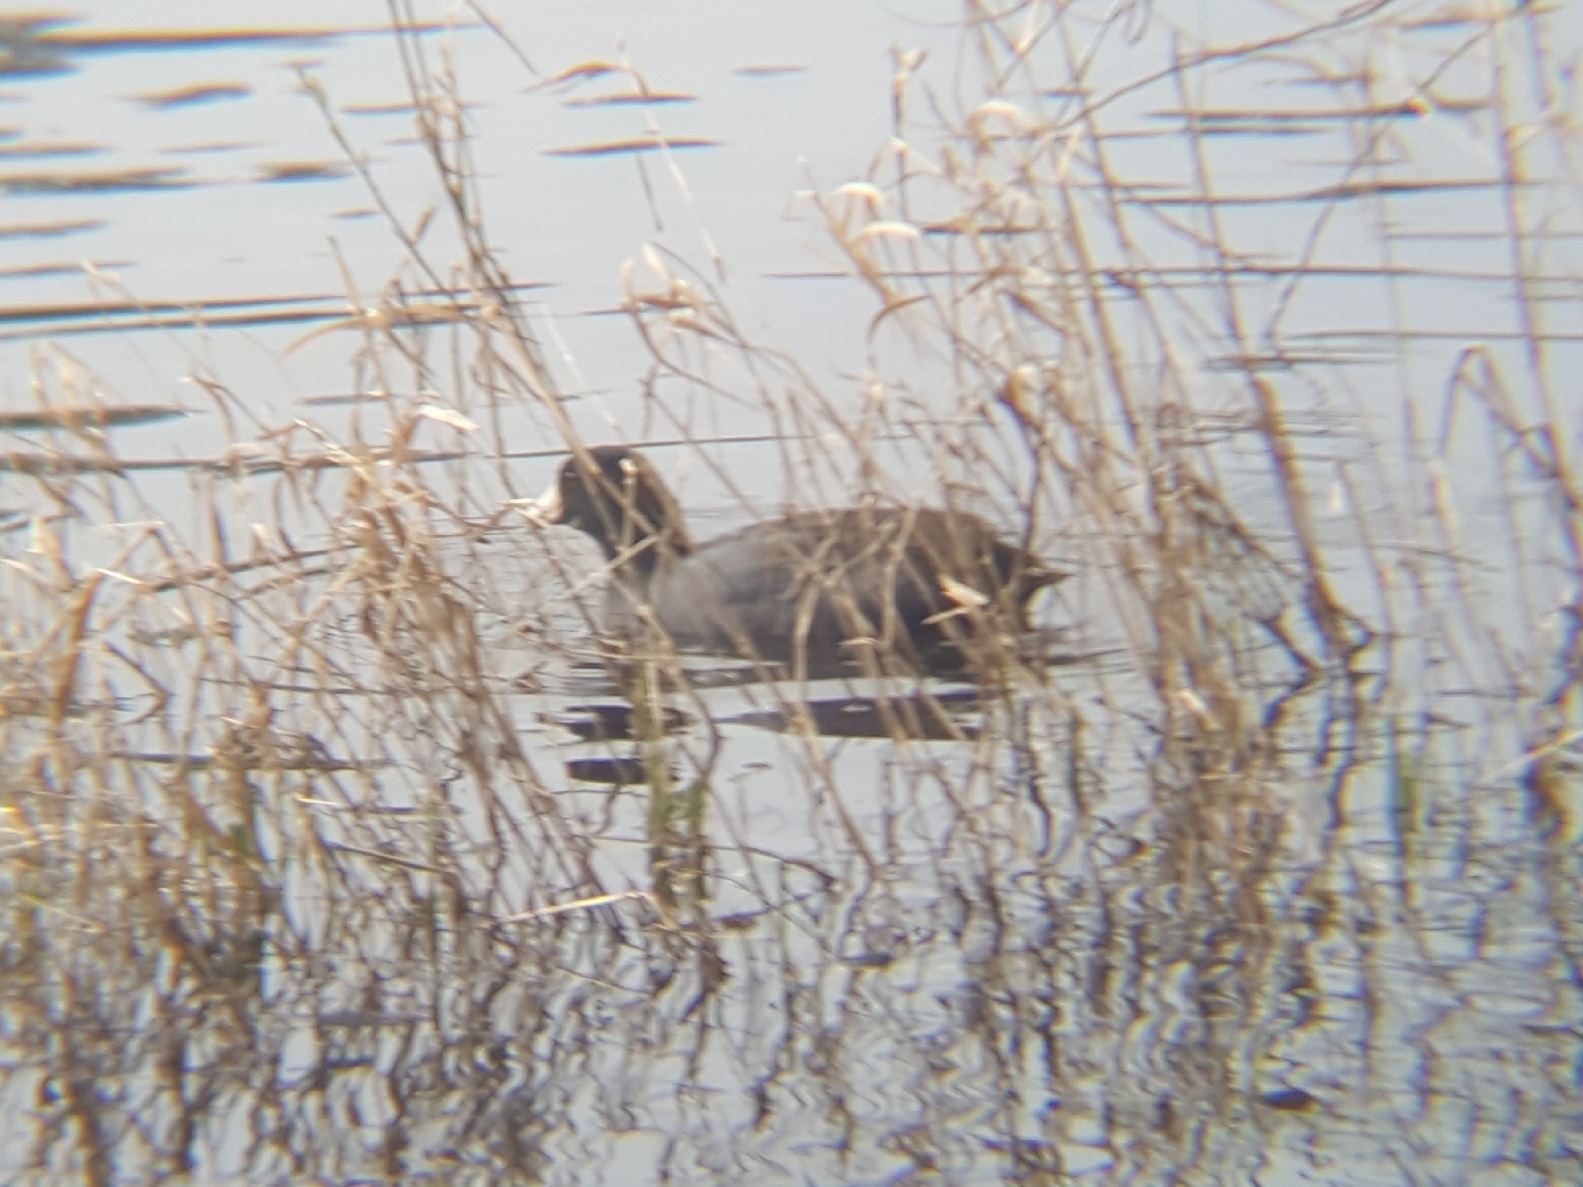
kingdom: Animalia
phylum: Chordata
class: Aves
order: Gruiformes
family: Rallidae
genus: Fulica
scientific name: Fulica americana
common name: American coot
